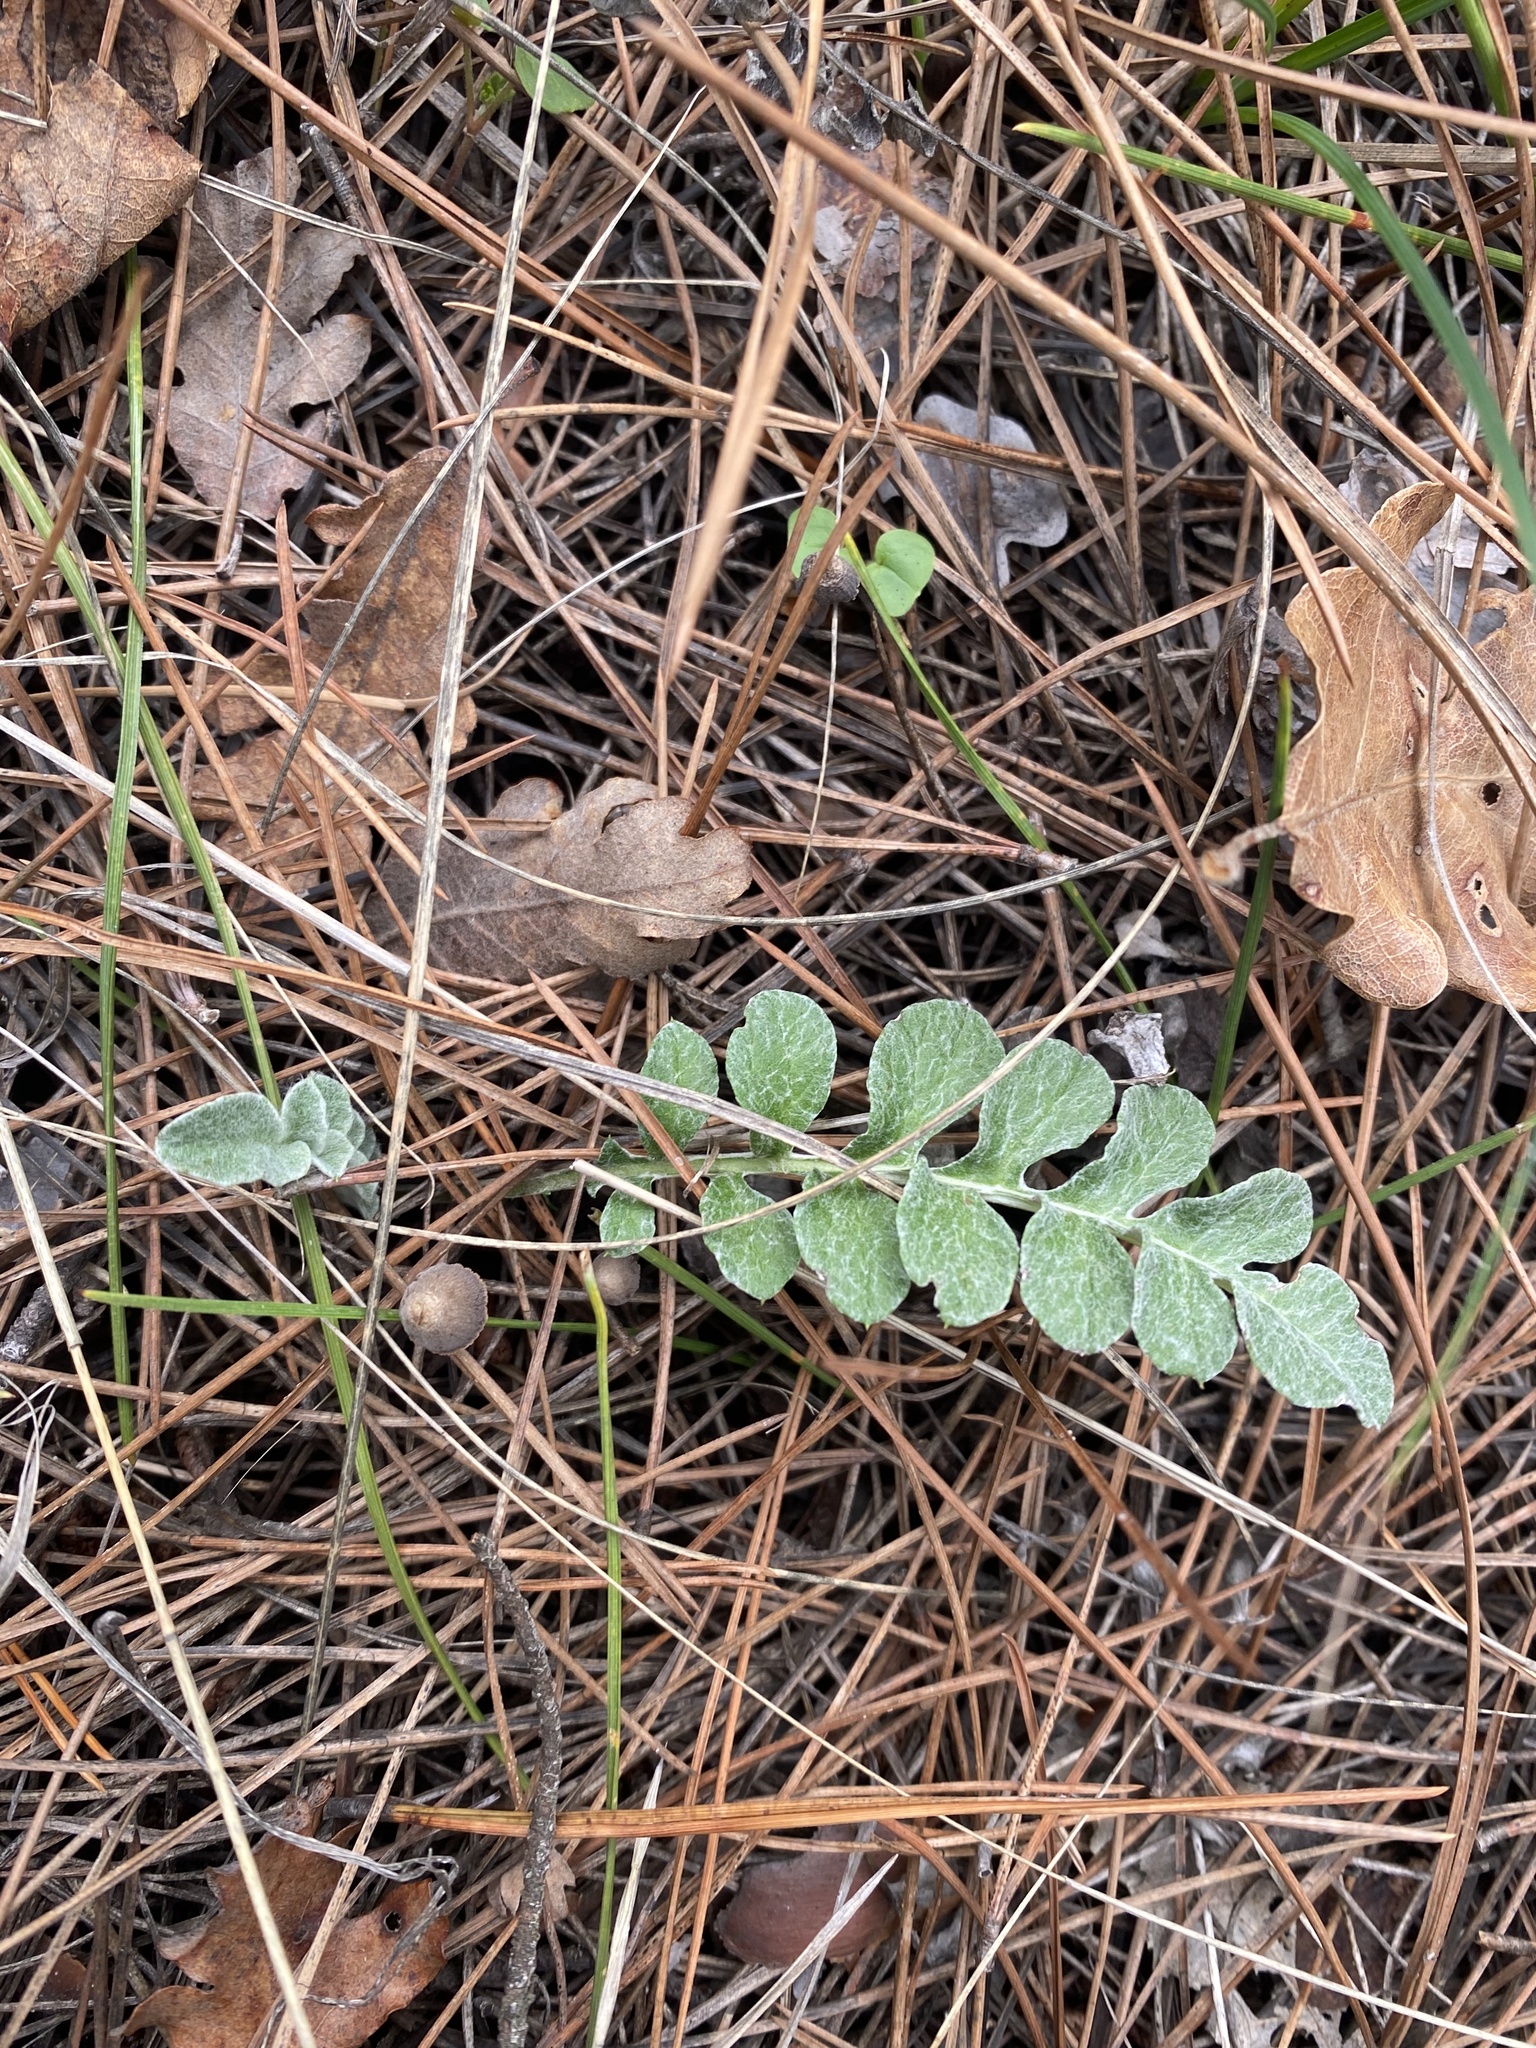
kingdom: Plantae
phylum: Tracheophyta
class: Magnoliopsida
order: Asterales
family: Asteraceae
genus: Psephellus
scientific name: Psephellus declinatus
